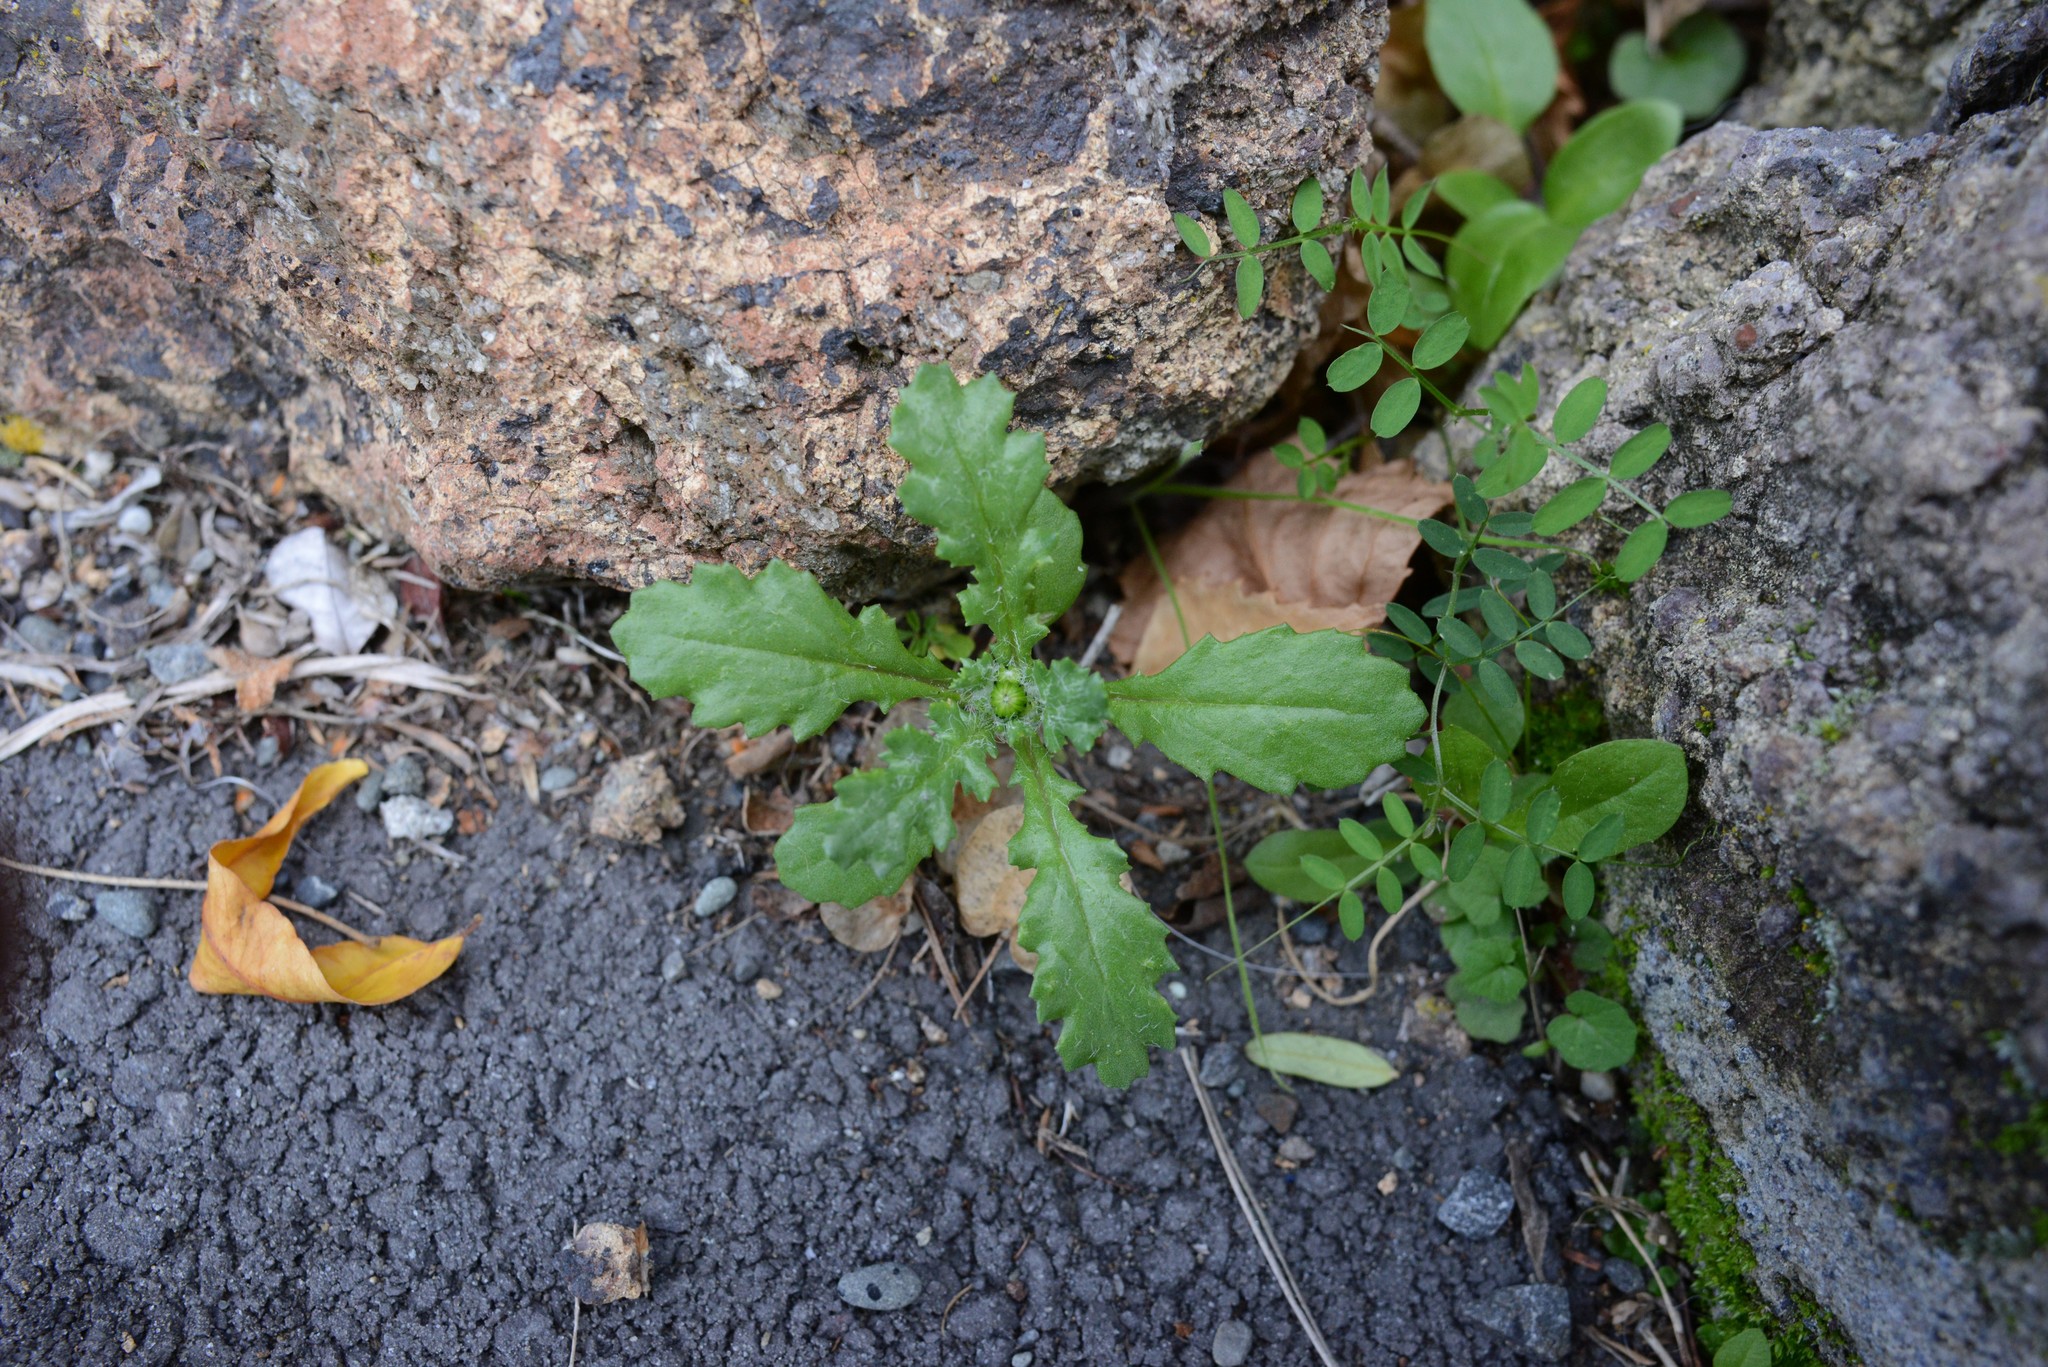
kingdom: Plantae
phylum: Tracheophyta
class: Magnoliopsida
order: Asterales
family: Asteraceae
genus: Senecio
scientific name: Senecio vulgaris
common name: Old-man-in-the-spring
